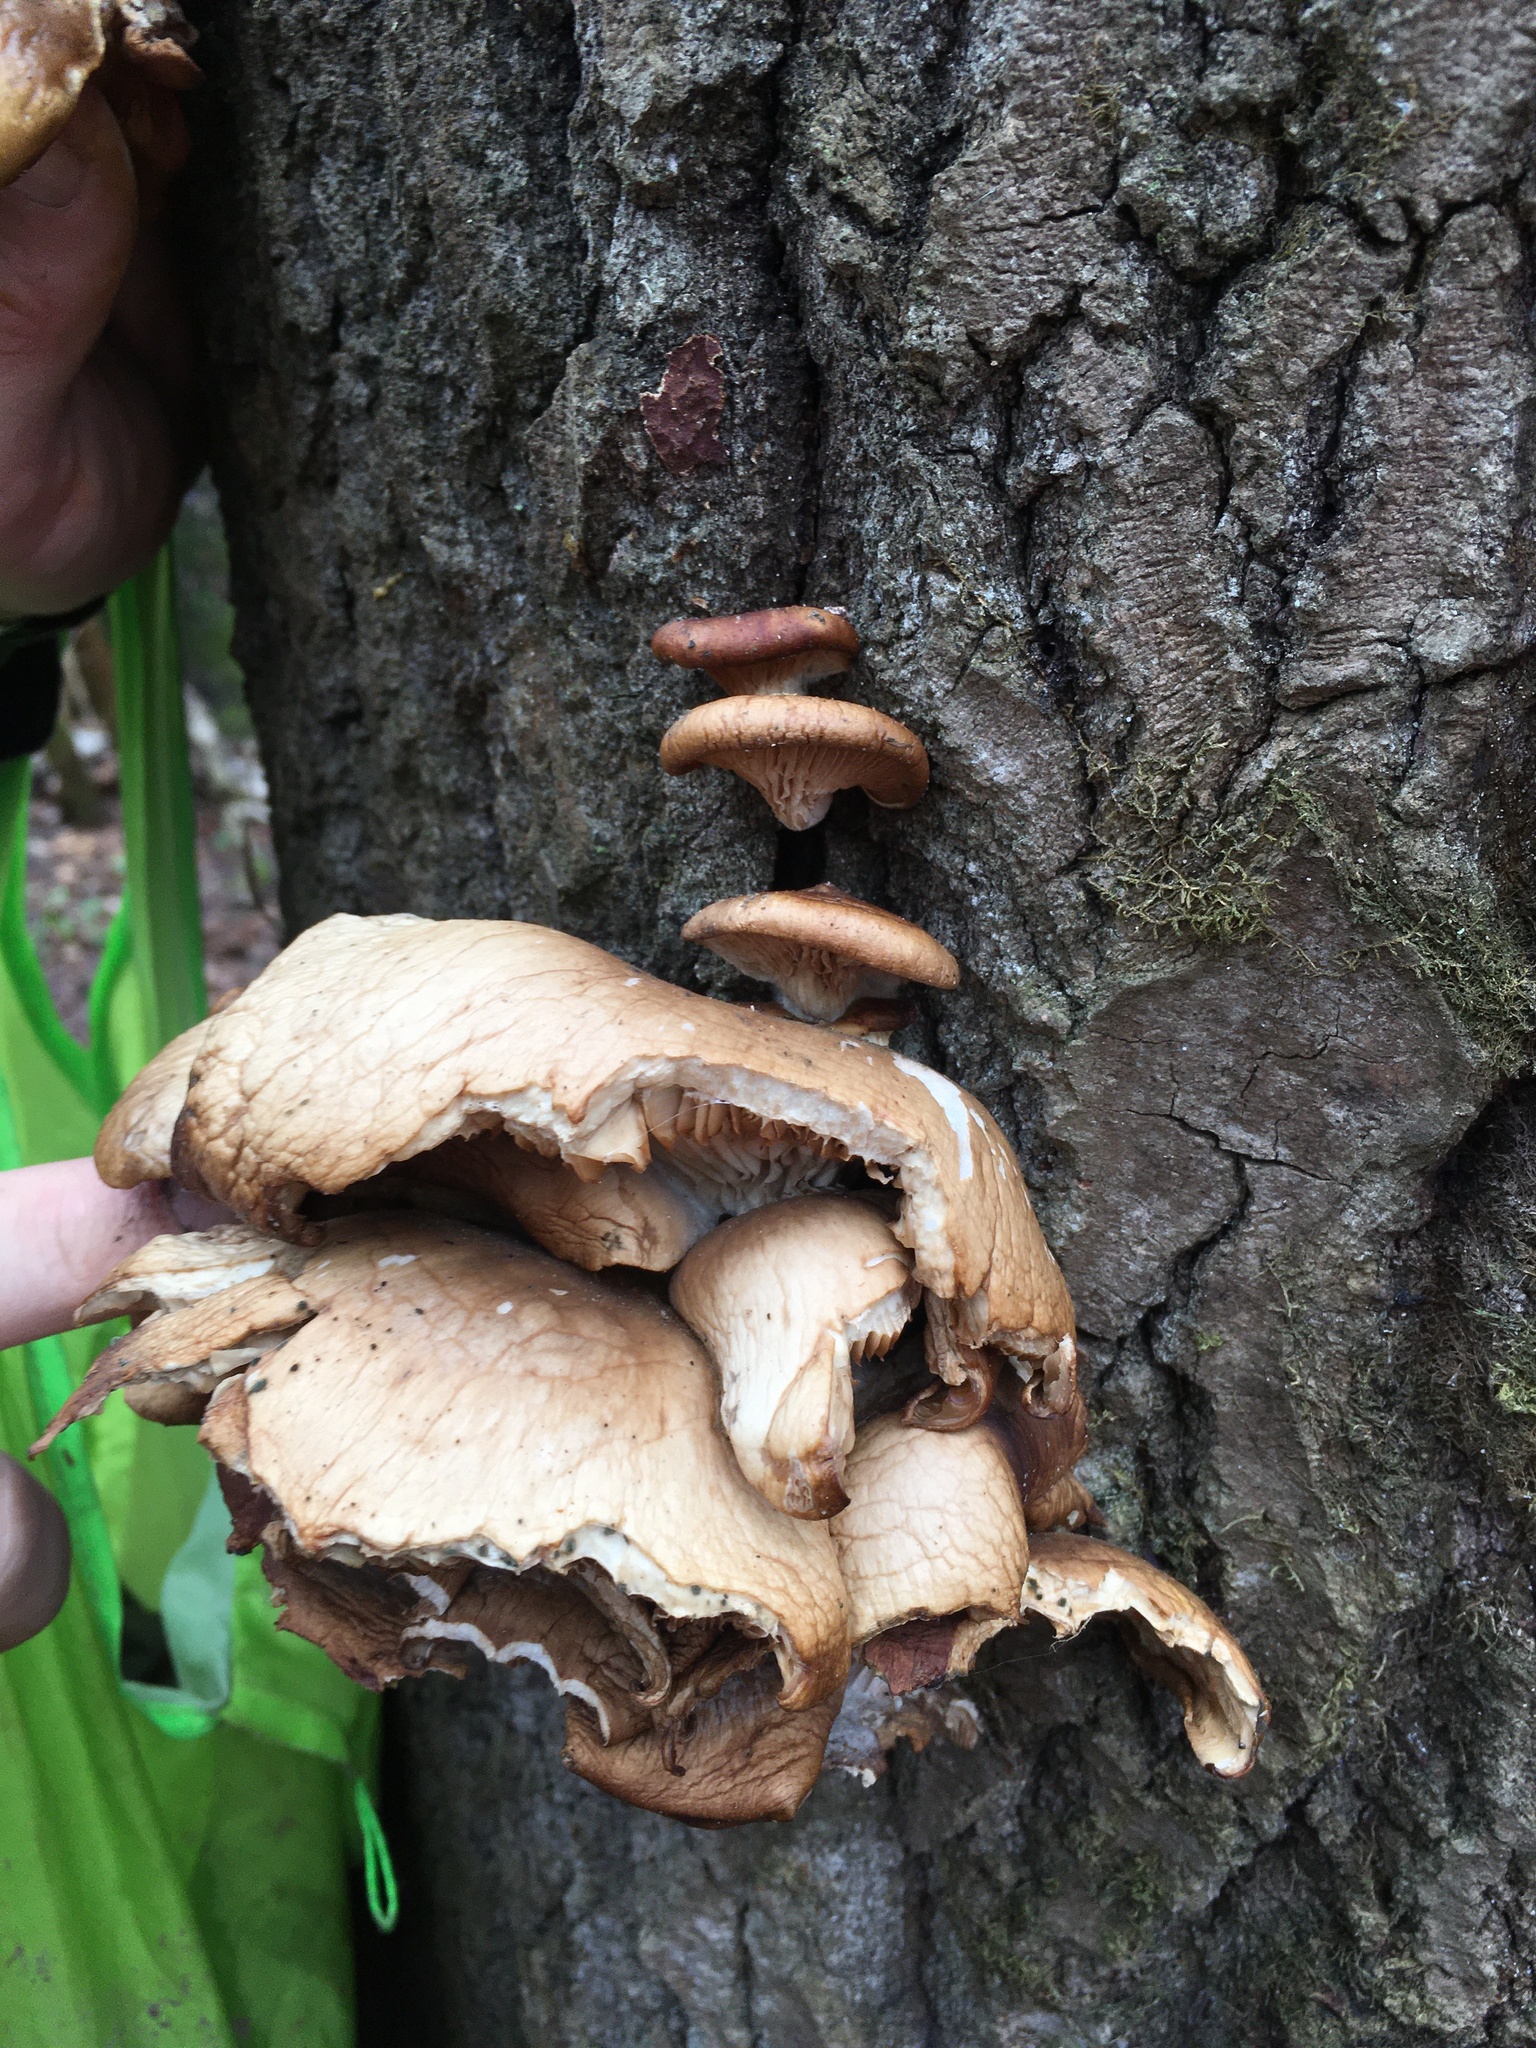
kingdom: Fungi
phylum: Basidiomycota
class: Agaricomycetes
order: Agaricales
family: Pleurotaceae
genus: Pleurotus
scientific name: Pleurotus pulmonarius
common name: Pale oyster
